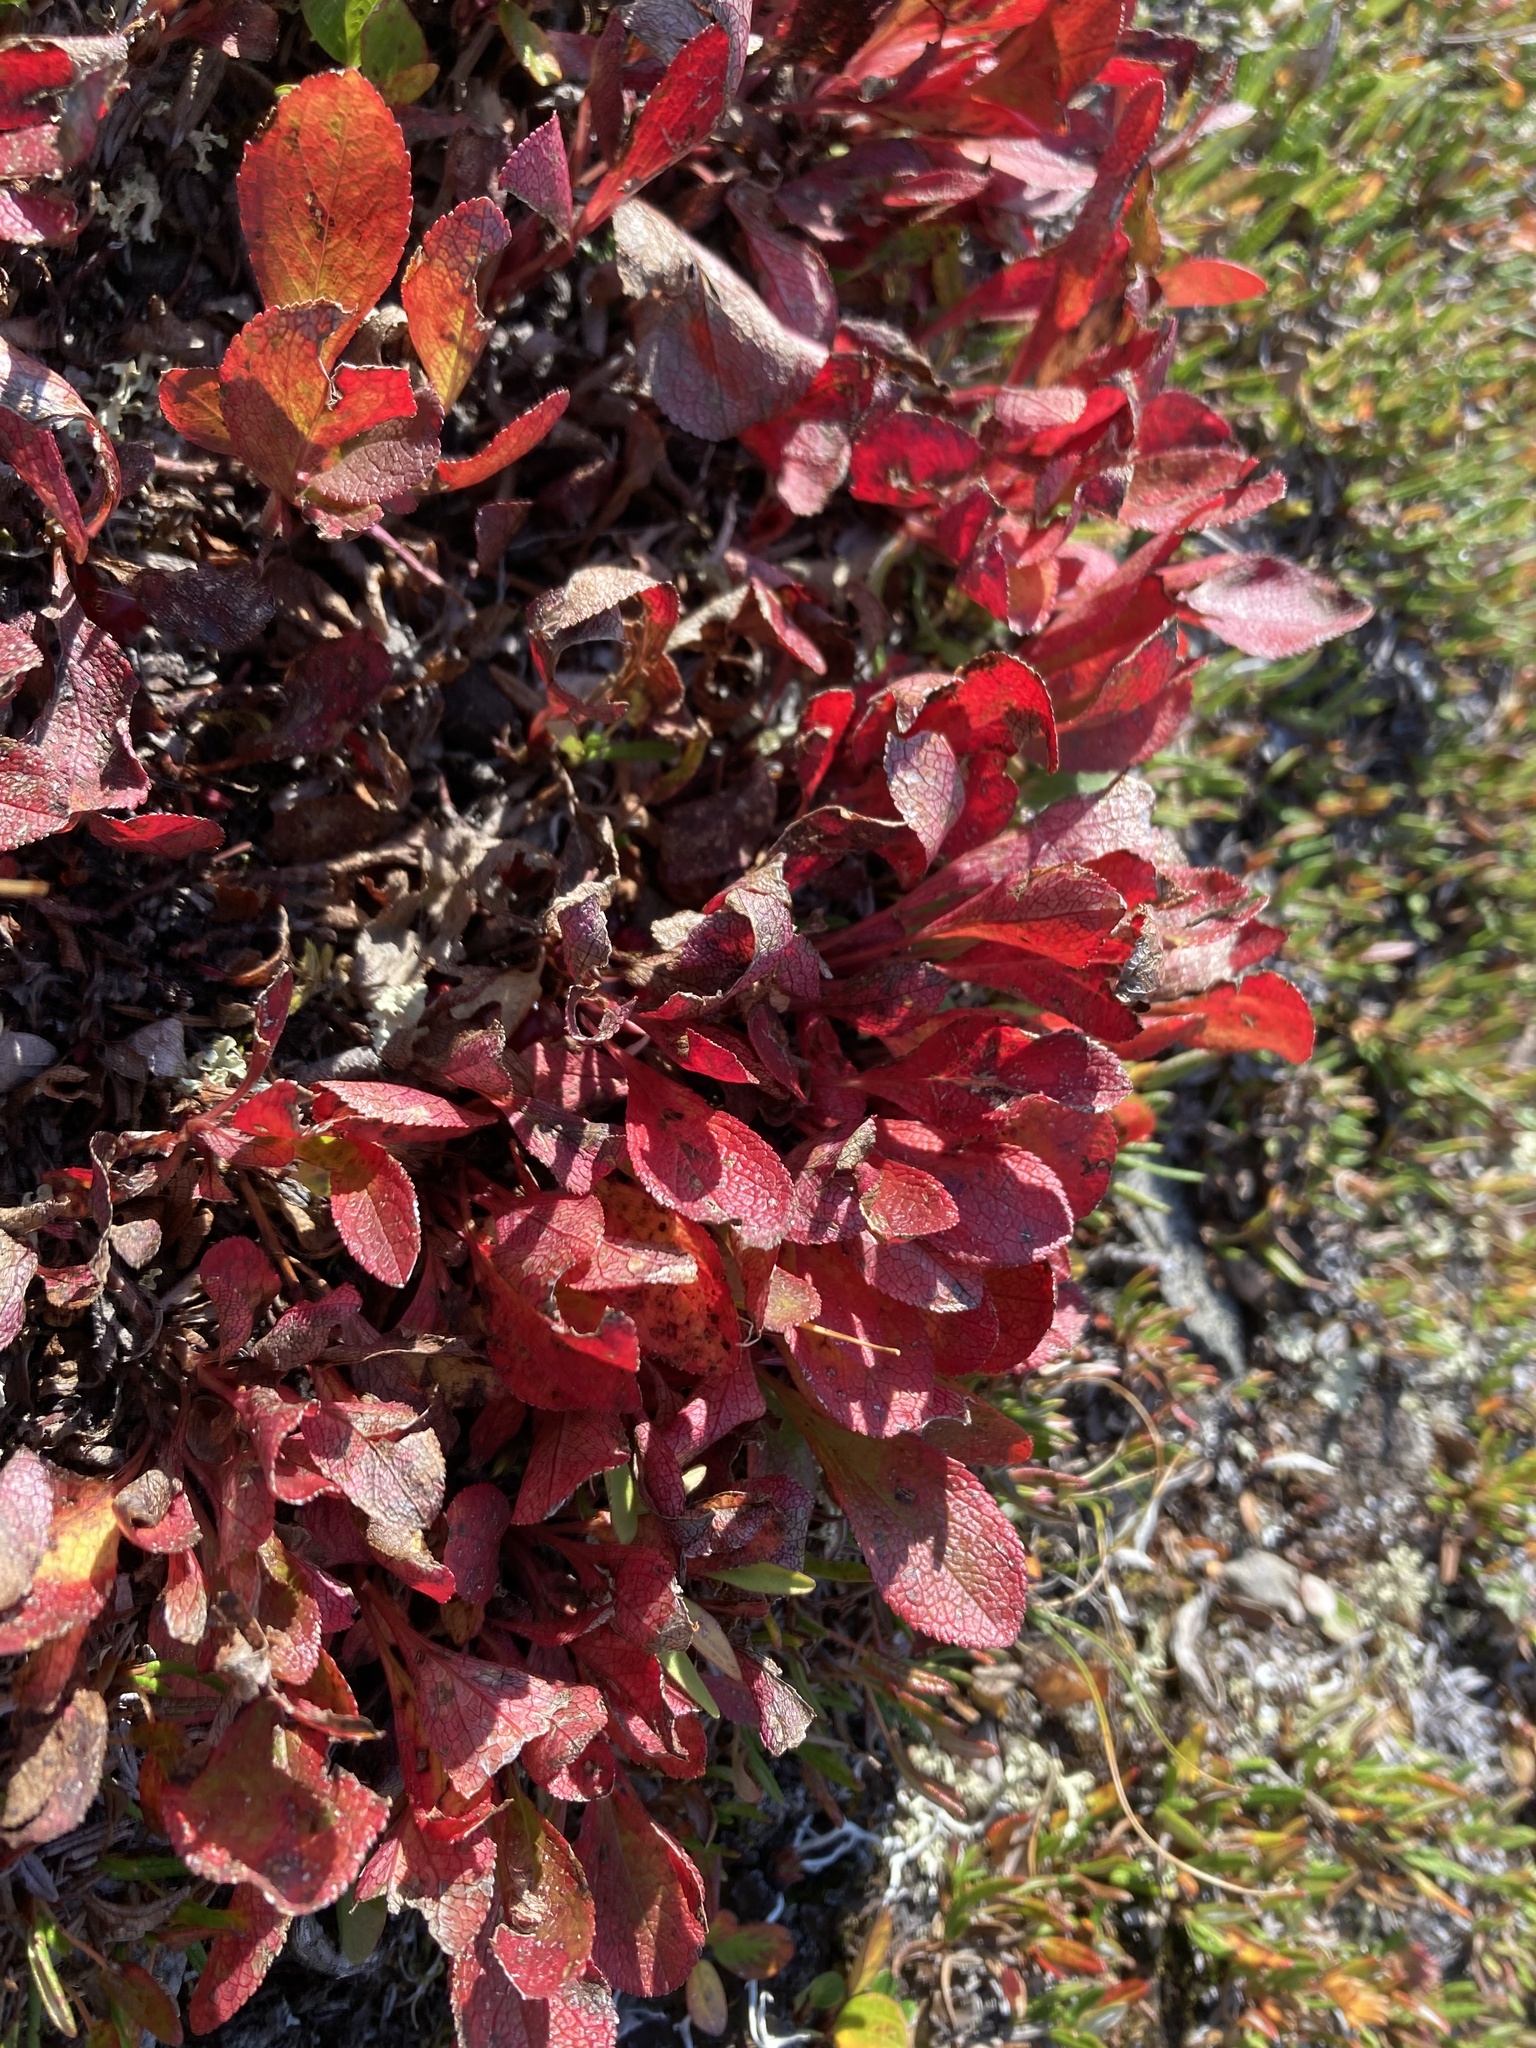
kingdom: Plantae
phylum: Tracheophyta
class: Magnoliopsida
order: Ericales
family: Ericaceae
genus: Arctostaphylos
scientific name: Arctostaphylos rubra
